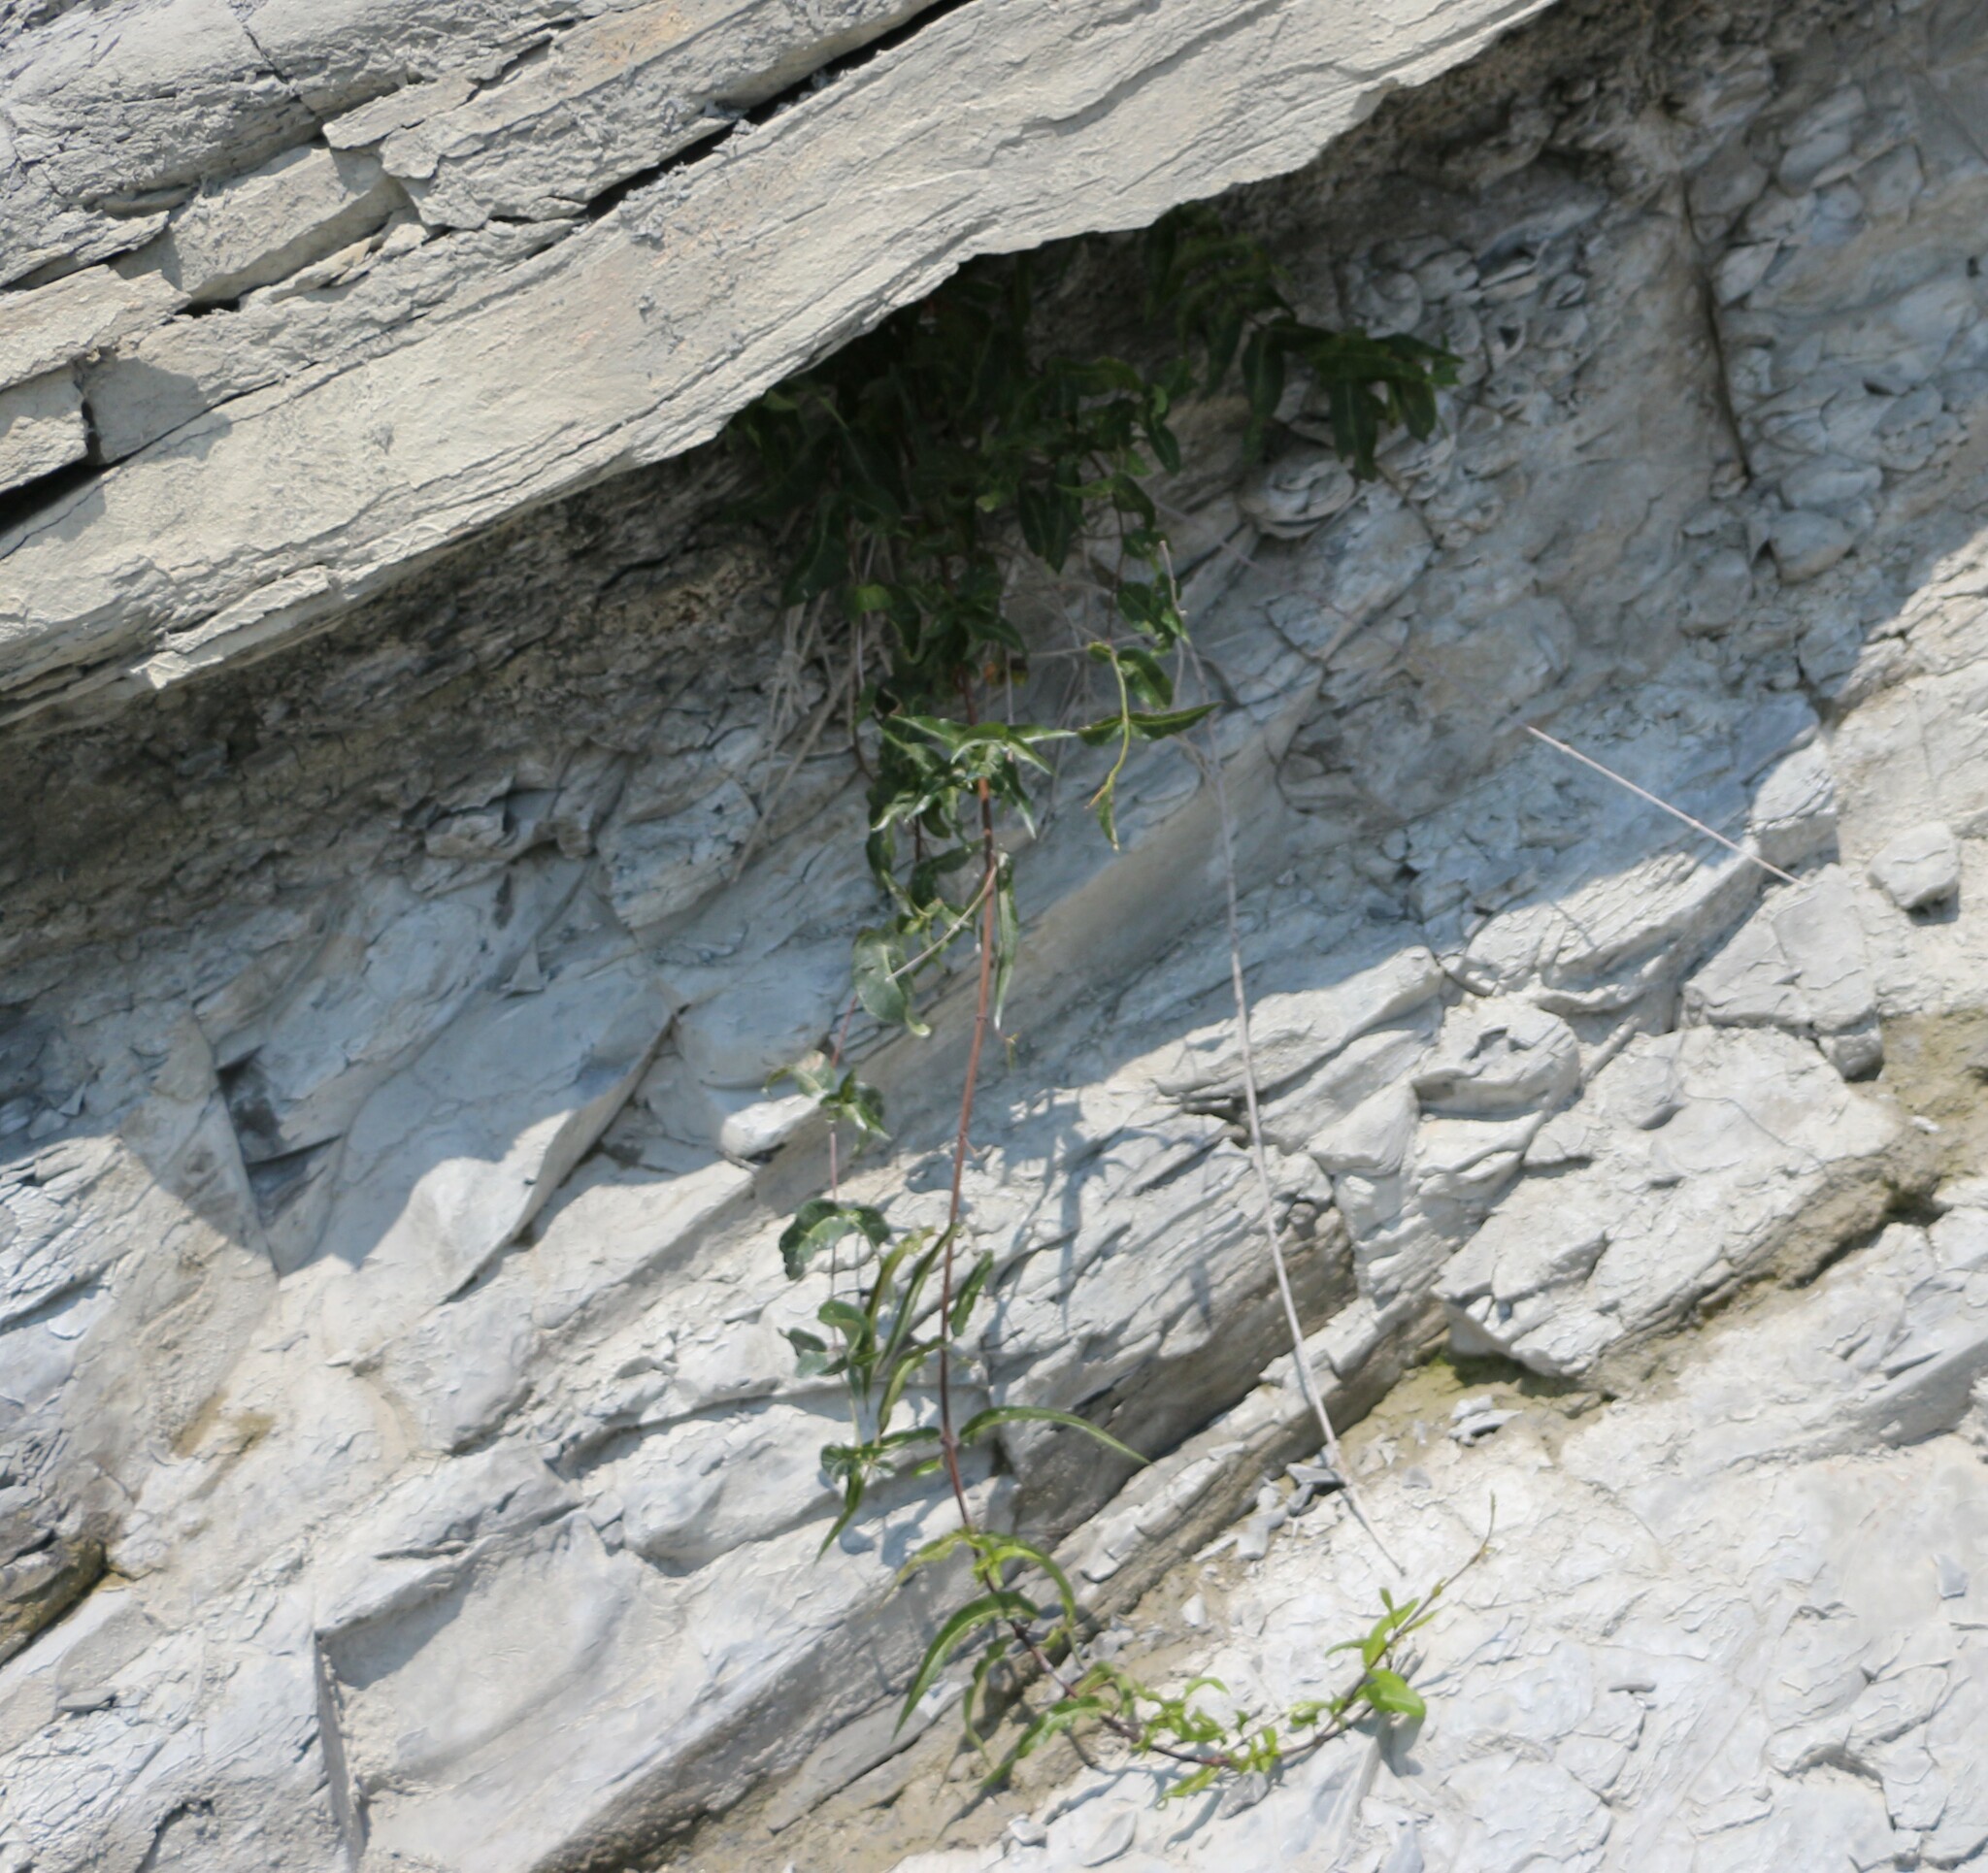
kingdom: Plantae
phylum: Tracheophyta
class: Magnoliopsida
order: Gentianales
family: Apocynaceae
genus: Periploca
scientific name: Periploca graeca
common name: Silkvine
